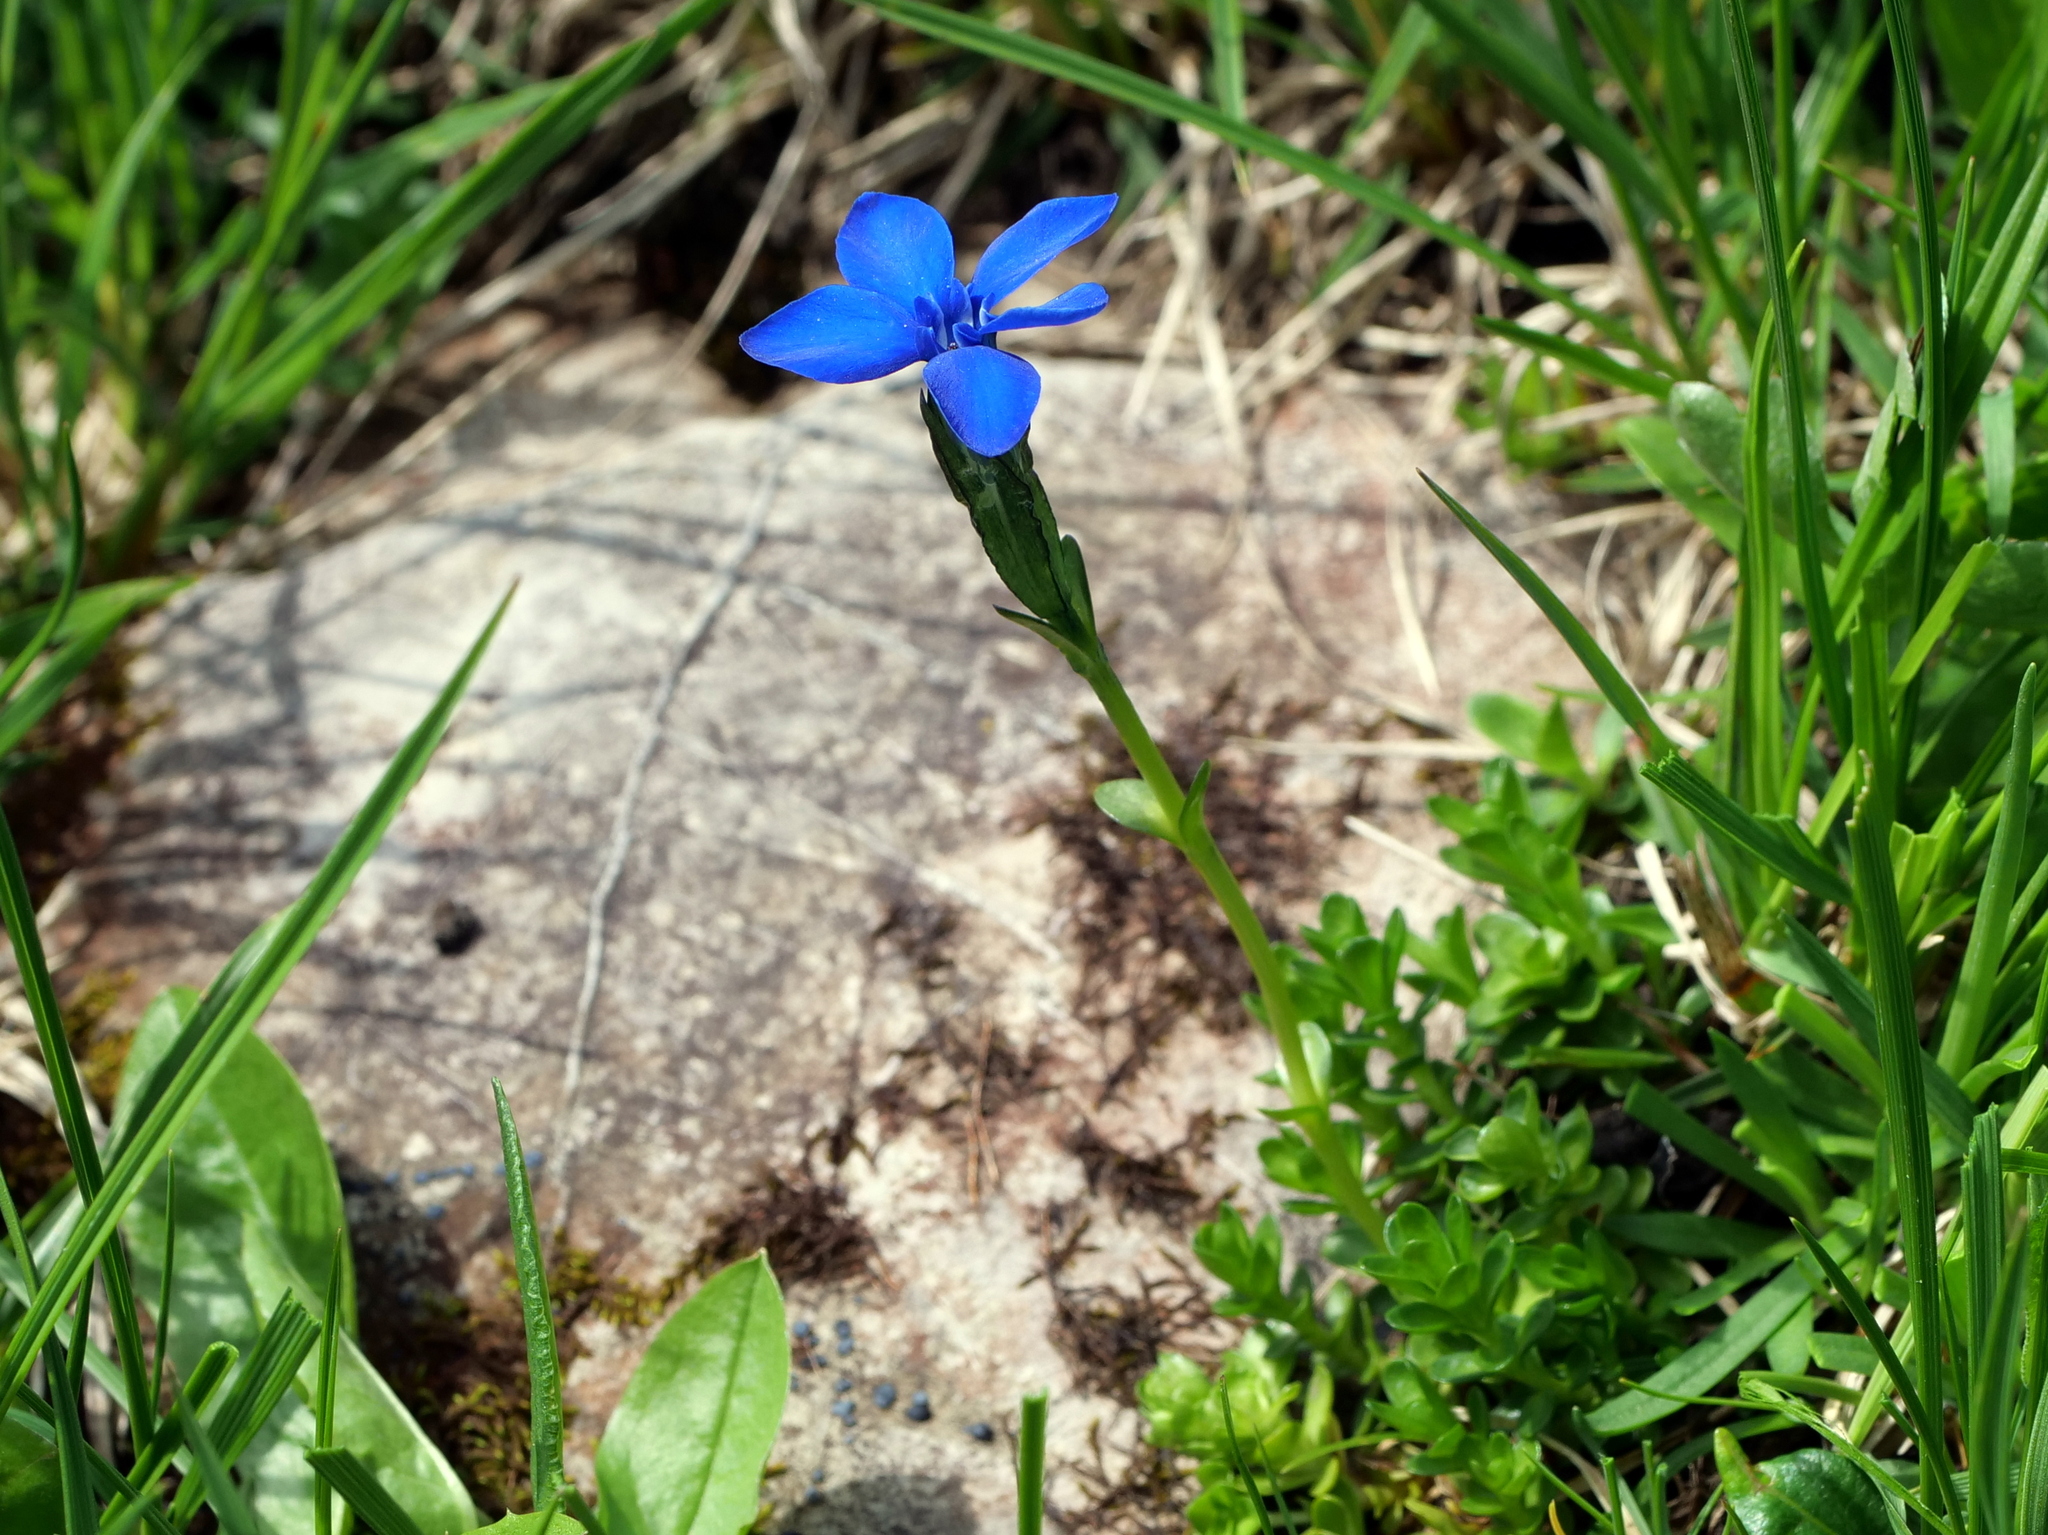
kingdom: Plantae
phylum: Tracheophyta
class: Magnoliopsida
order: Gentianales
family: Gentianaceae
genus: Gentiana
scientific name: Gentiana bavarica
